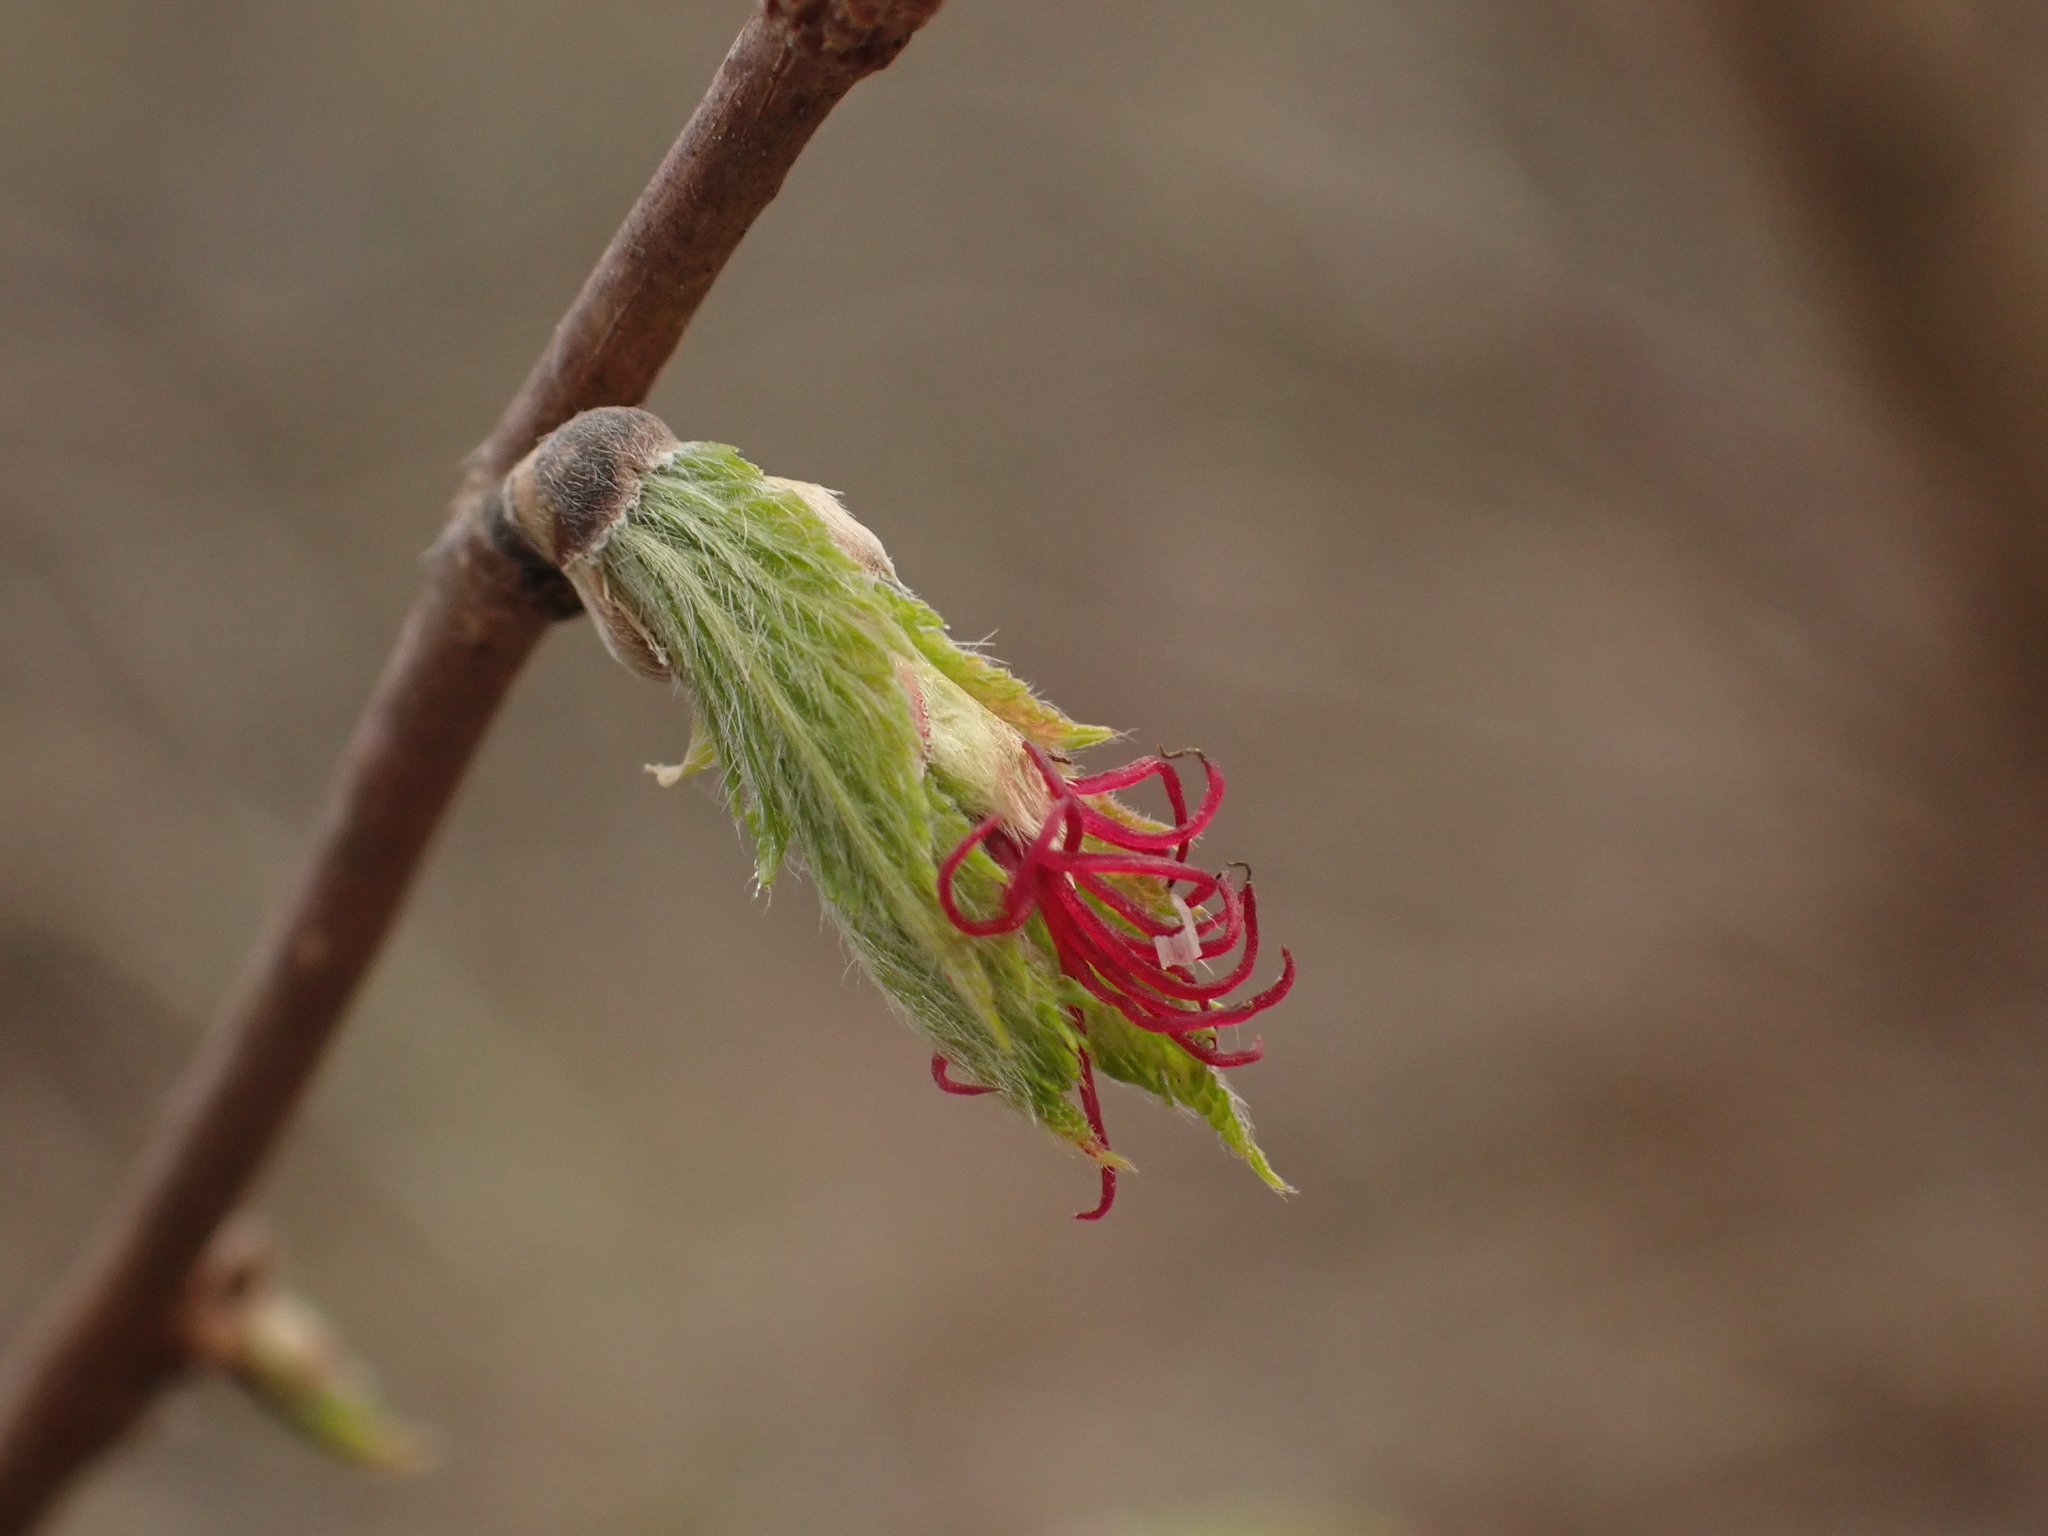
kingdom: Plantae
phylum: Tracheophyta
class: Magnoliopsida
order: Fagales
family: Betulaceae
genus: Corylus
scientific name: Corylus cornuta
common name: Beaked hazel
